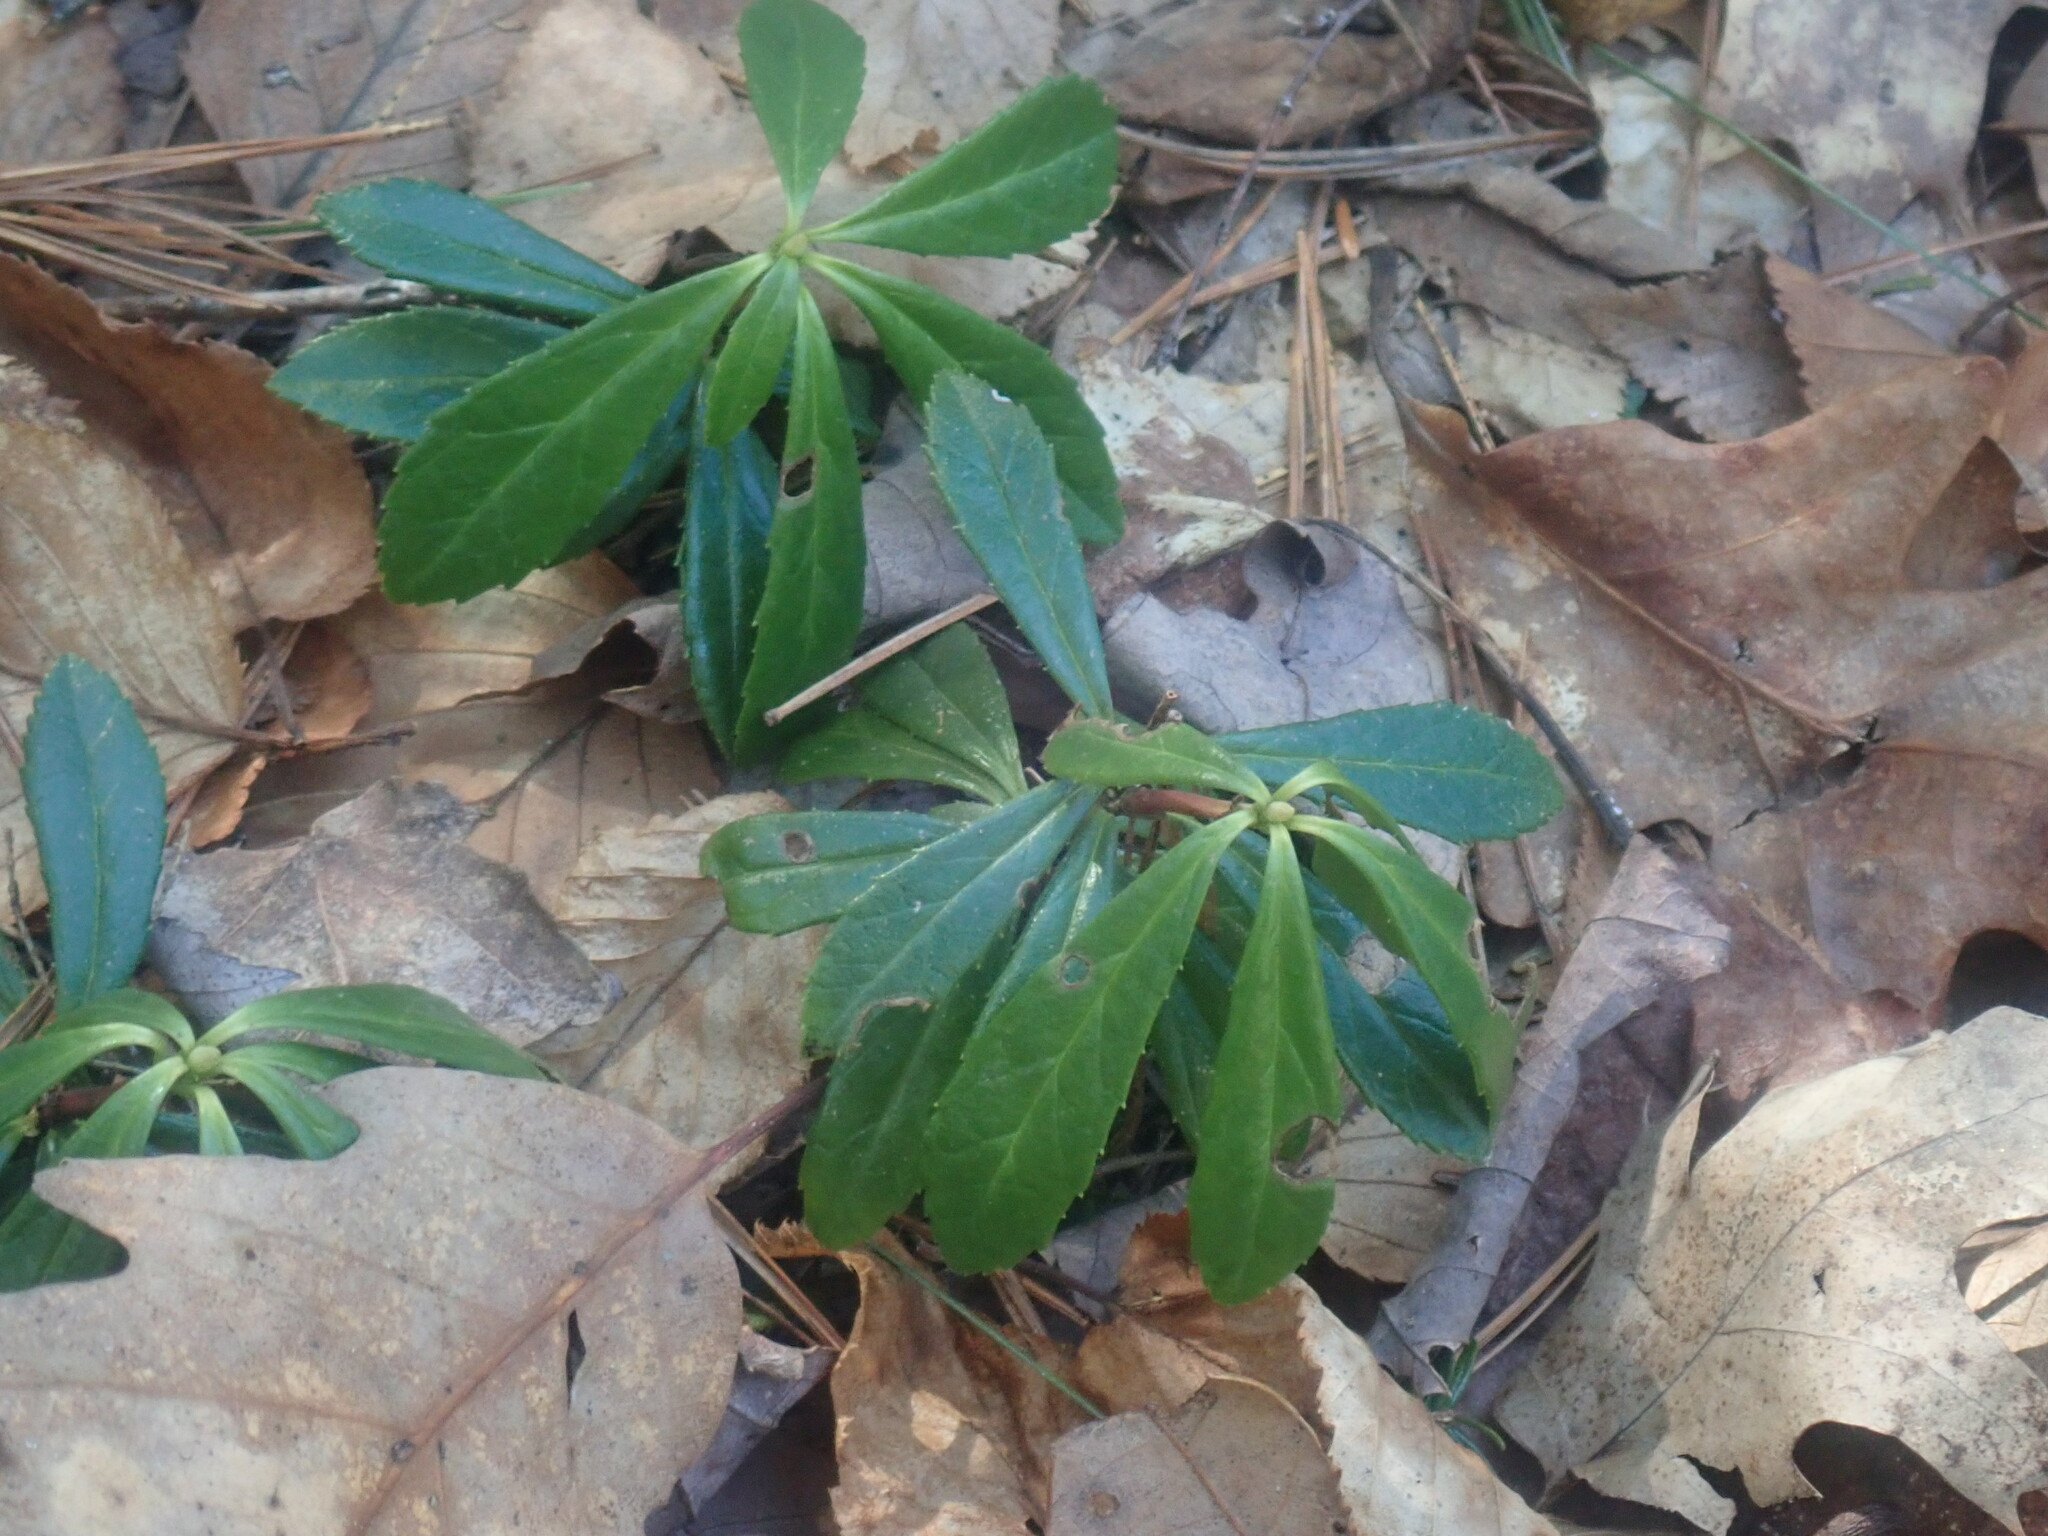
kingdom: Plantae
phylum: Tracheophyta
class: Magnoliopsida
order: Ericales
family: Ericaceae
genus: Chimaphila
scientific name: Chimaphila umbellata
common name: Pipsissewa
